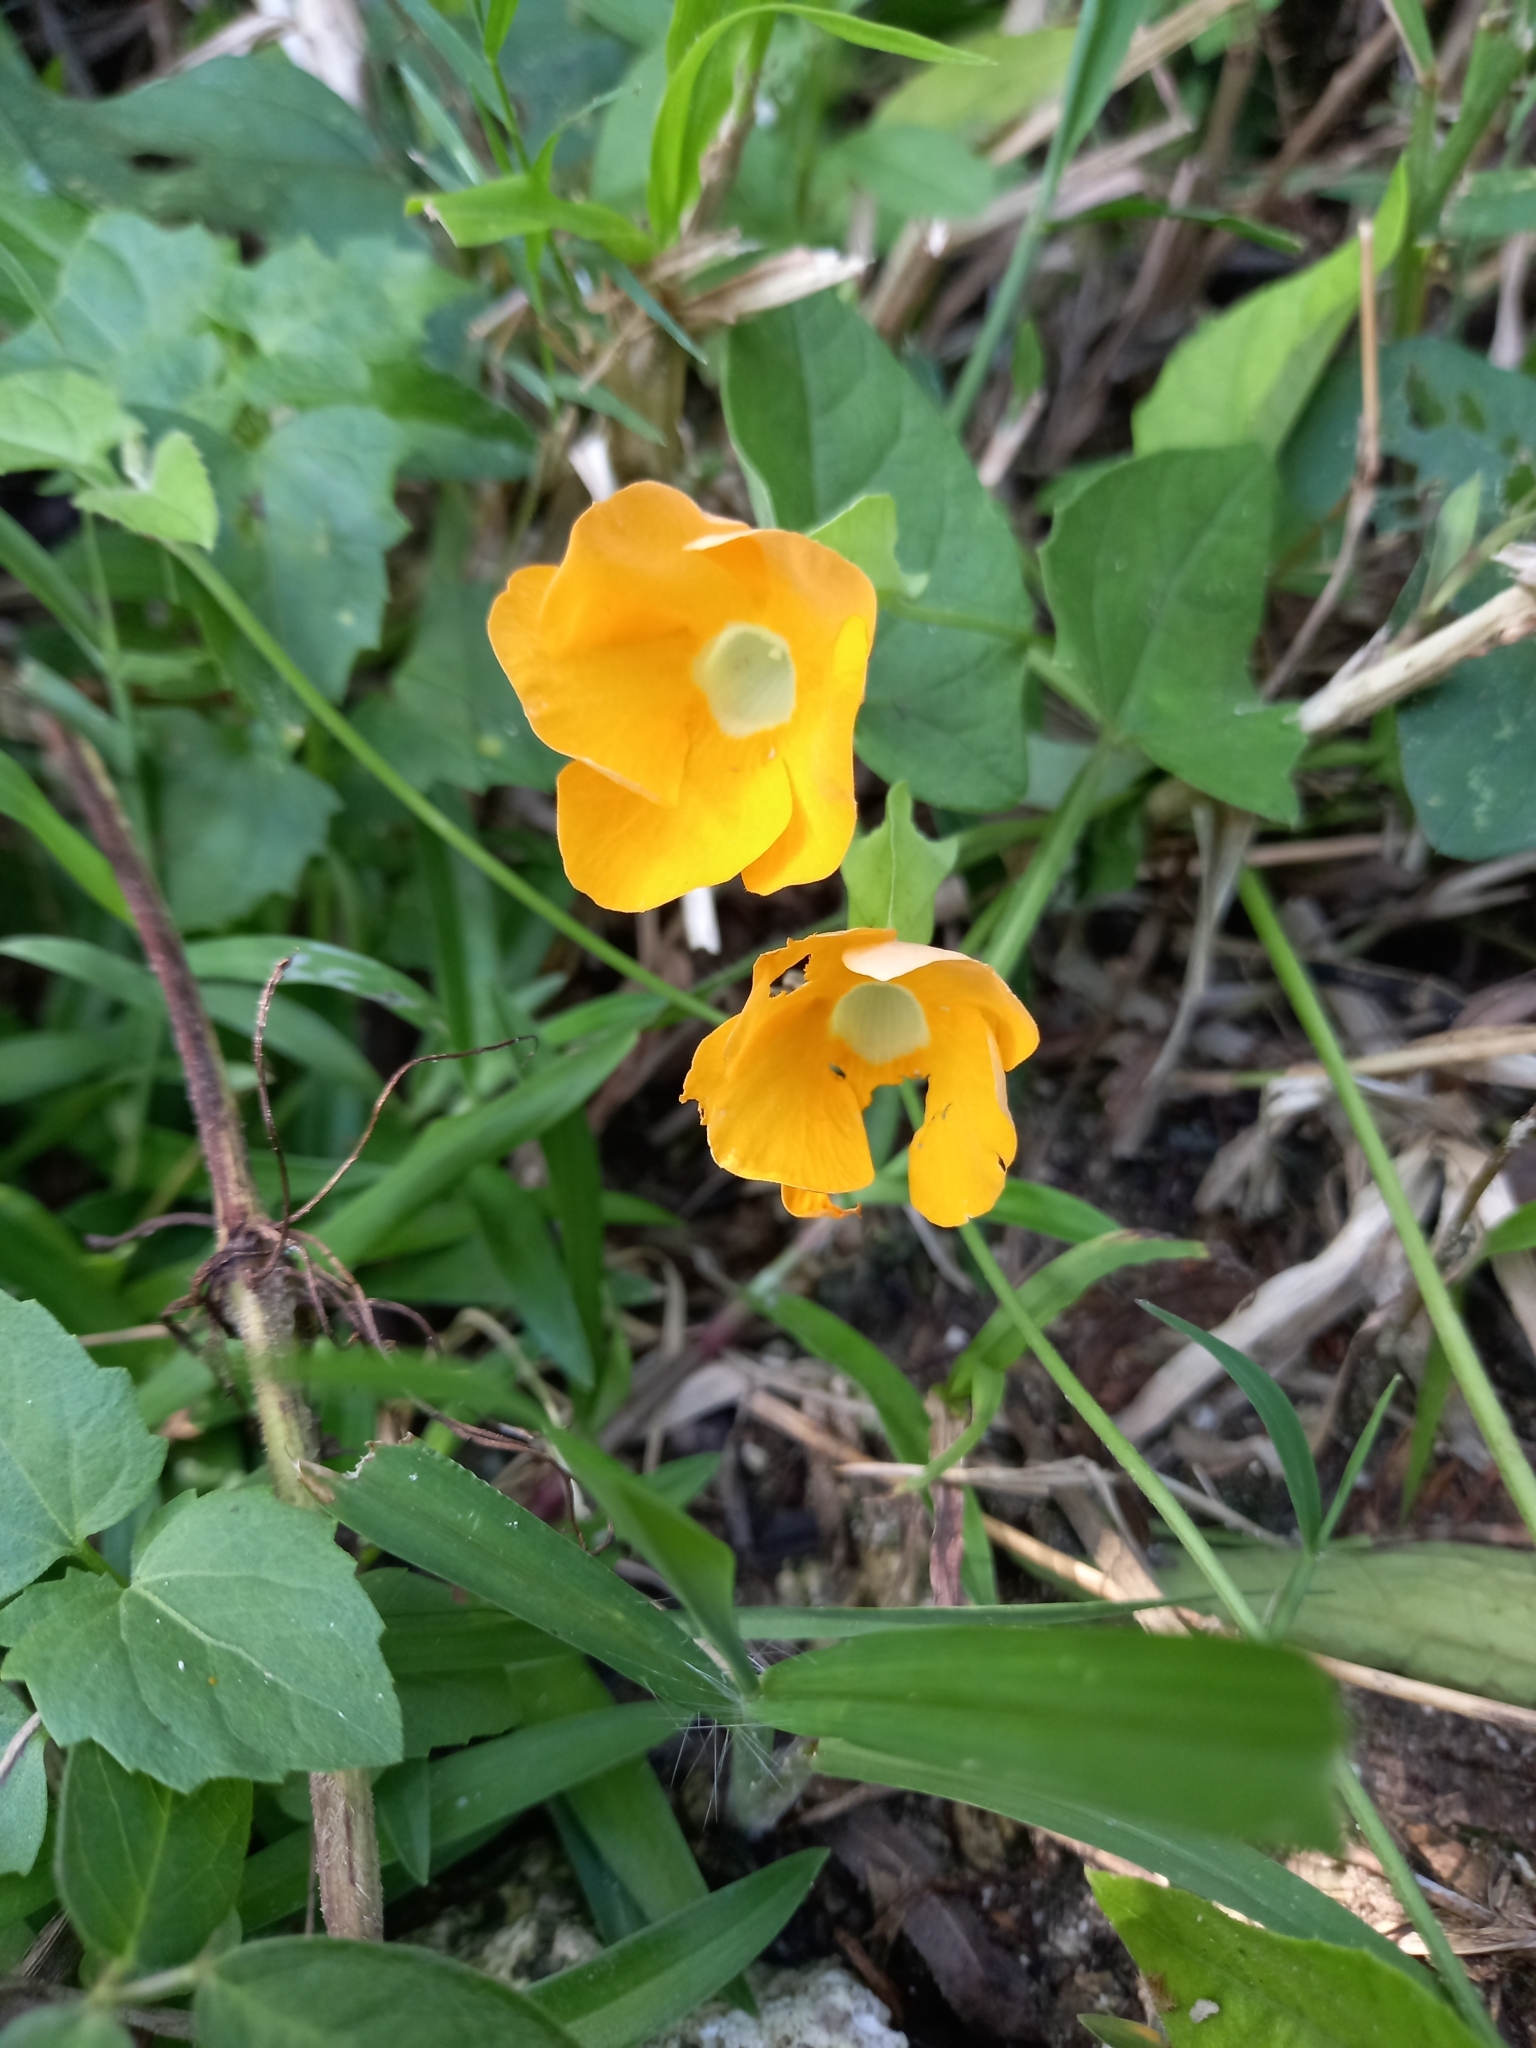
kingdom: Plantae
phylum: Tracheophyta
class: Magnoliopsida
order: Lamiales
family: Acanthaceae
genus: Thunbergia
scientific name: Thunbergia alata
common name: Blackeyed susan vine
